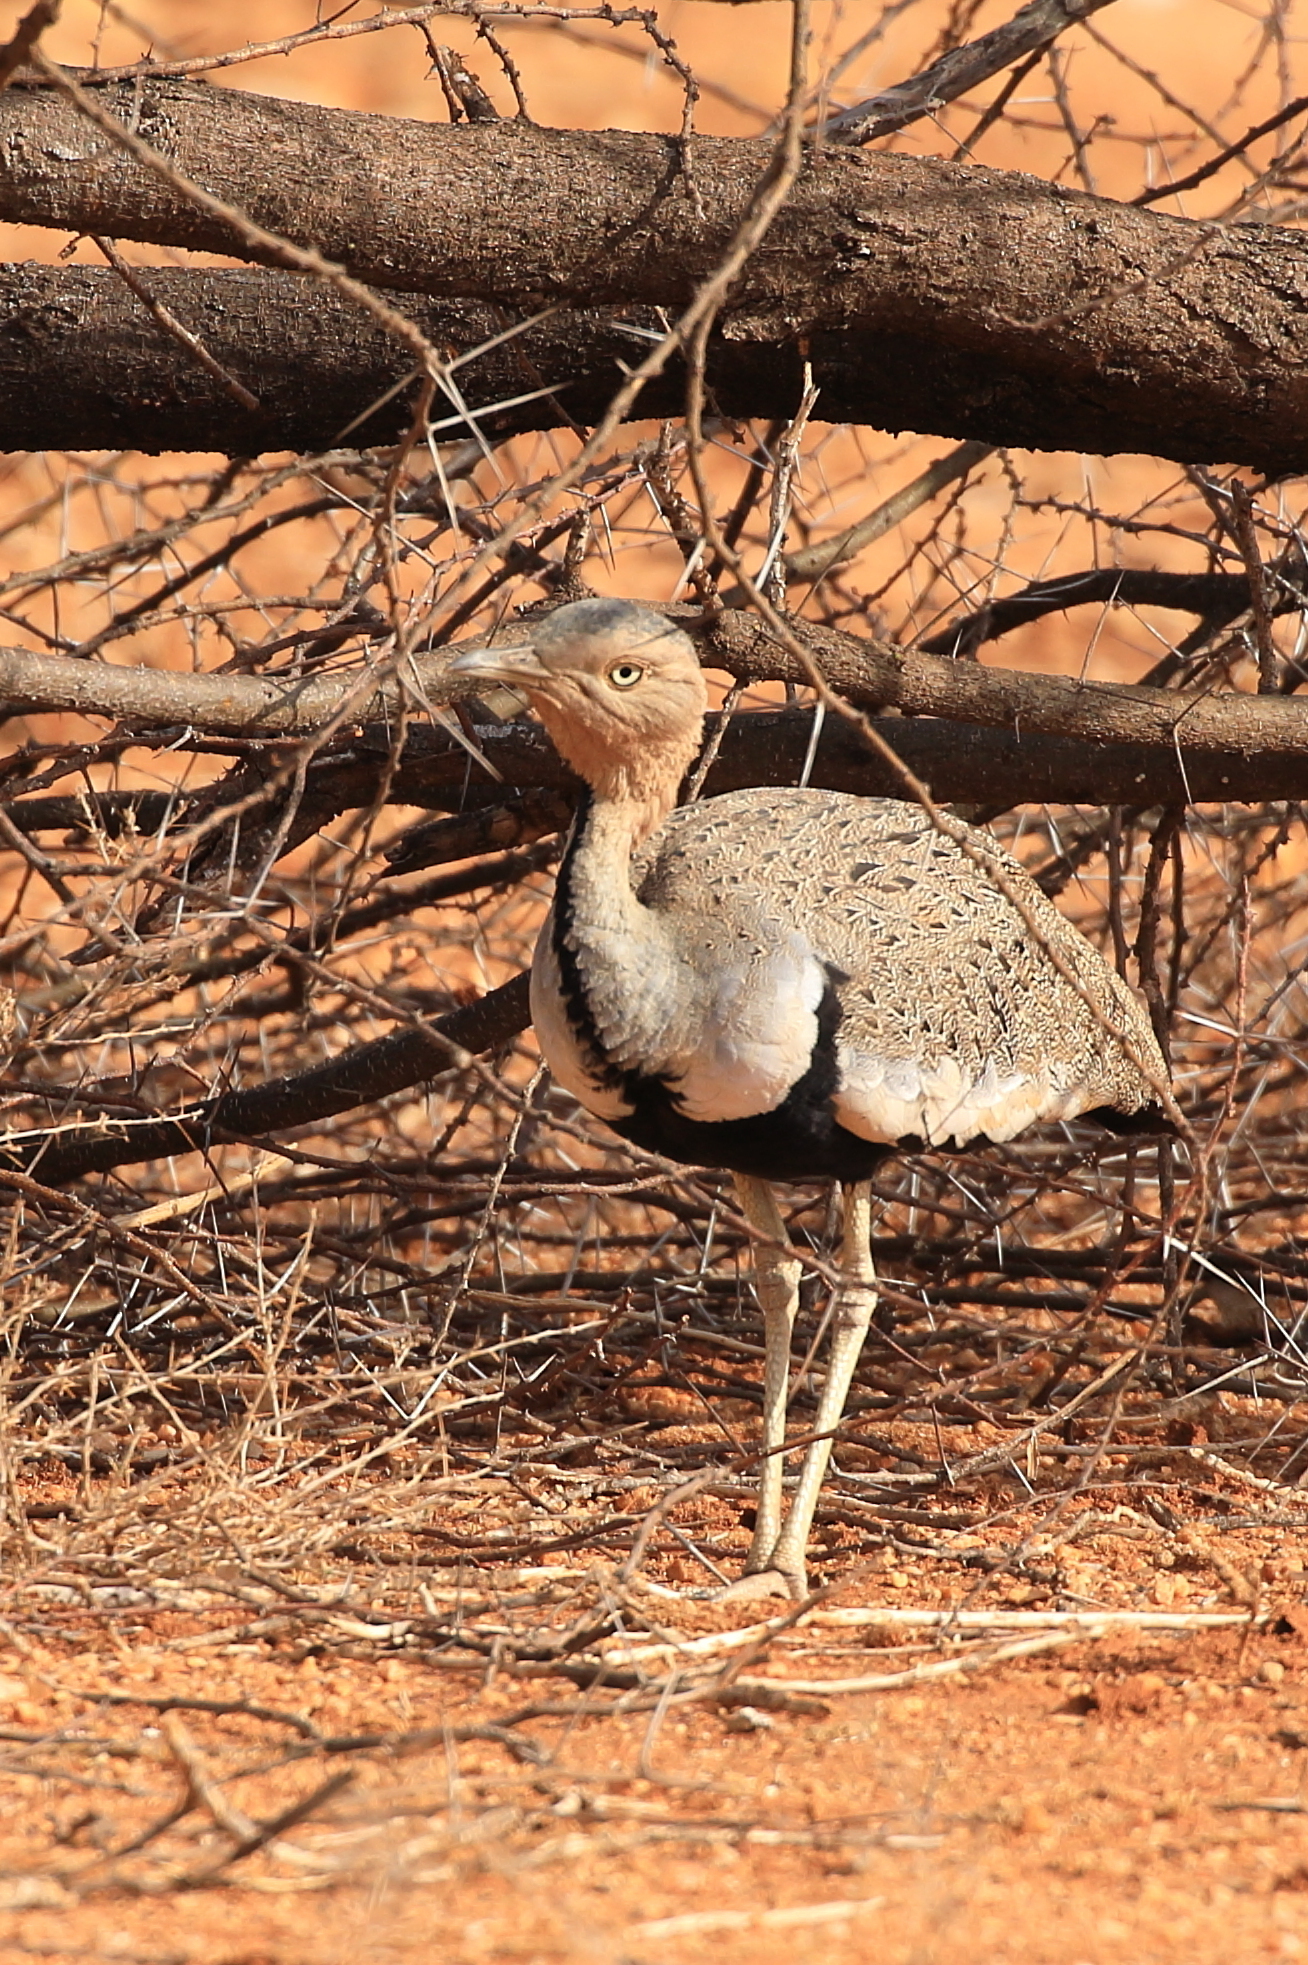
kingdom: Animalia
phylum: Chordata
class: Aves
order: Otidiformes
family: Otididae
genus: Lophotis
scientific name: Lophotis gindiana
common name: Buff-crested bustard
